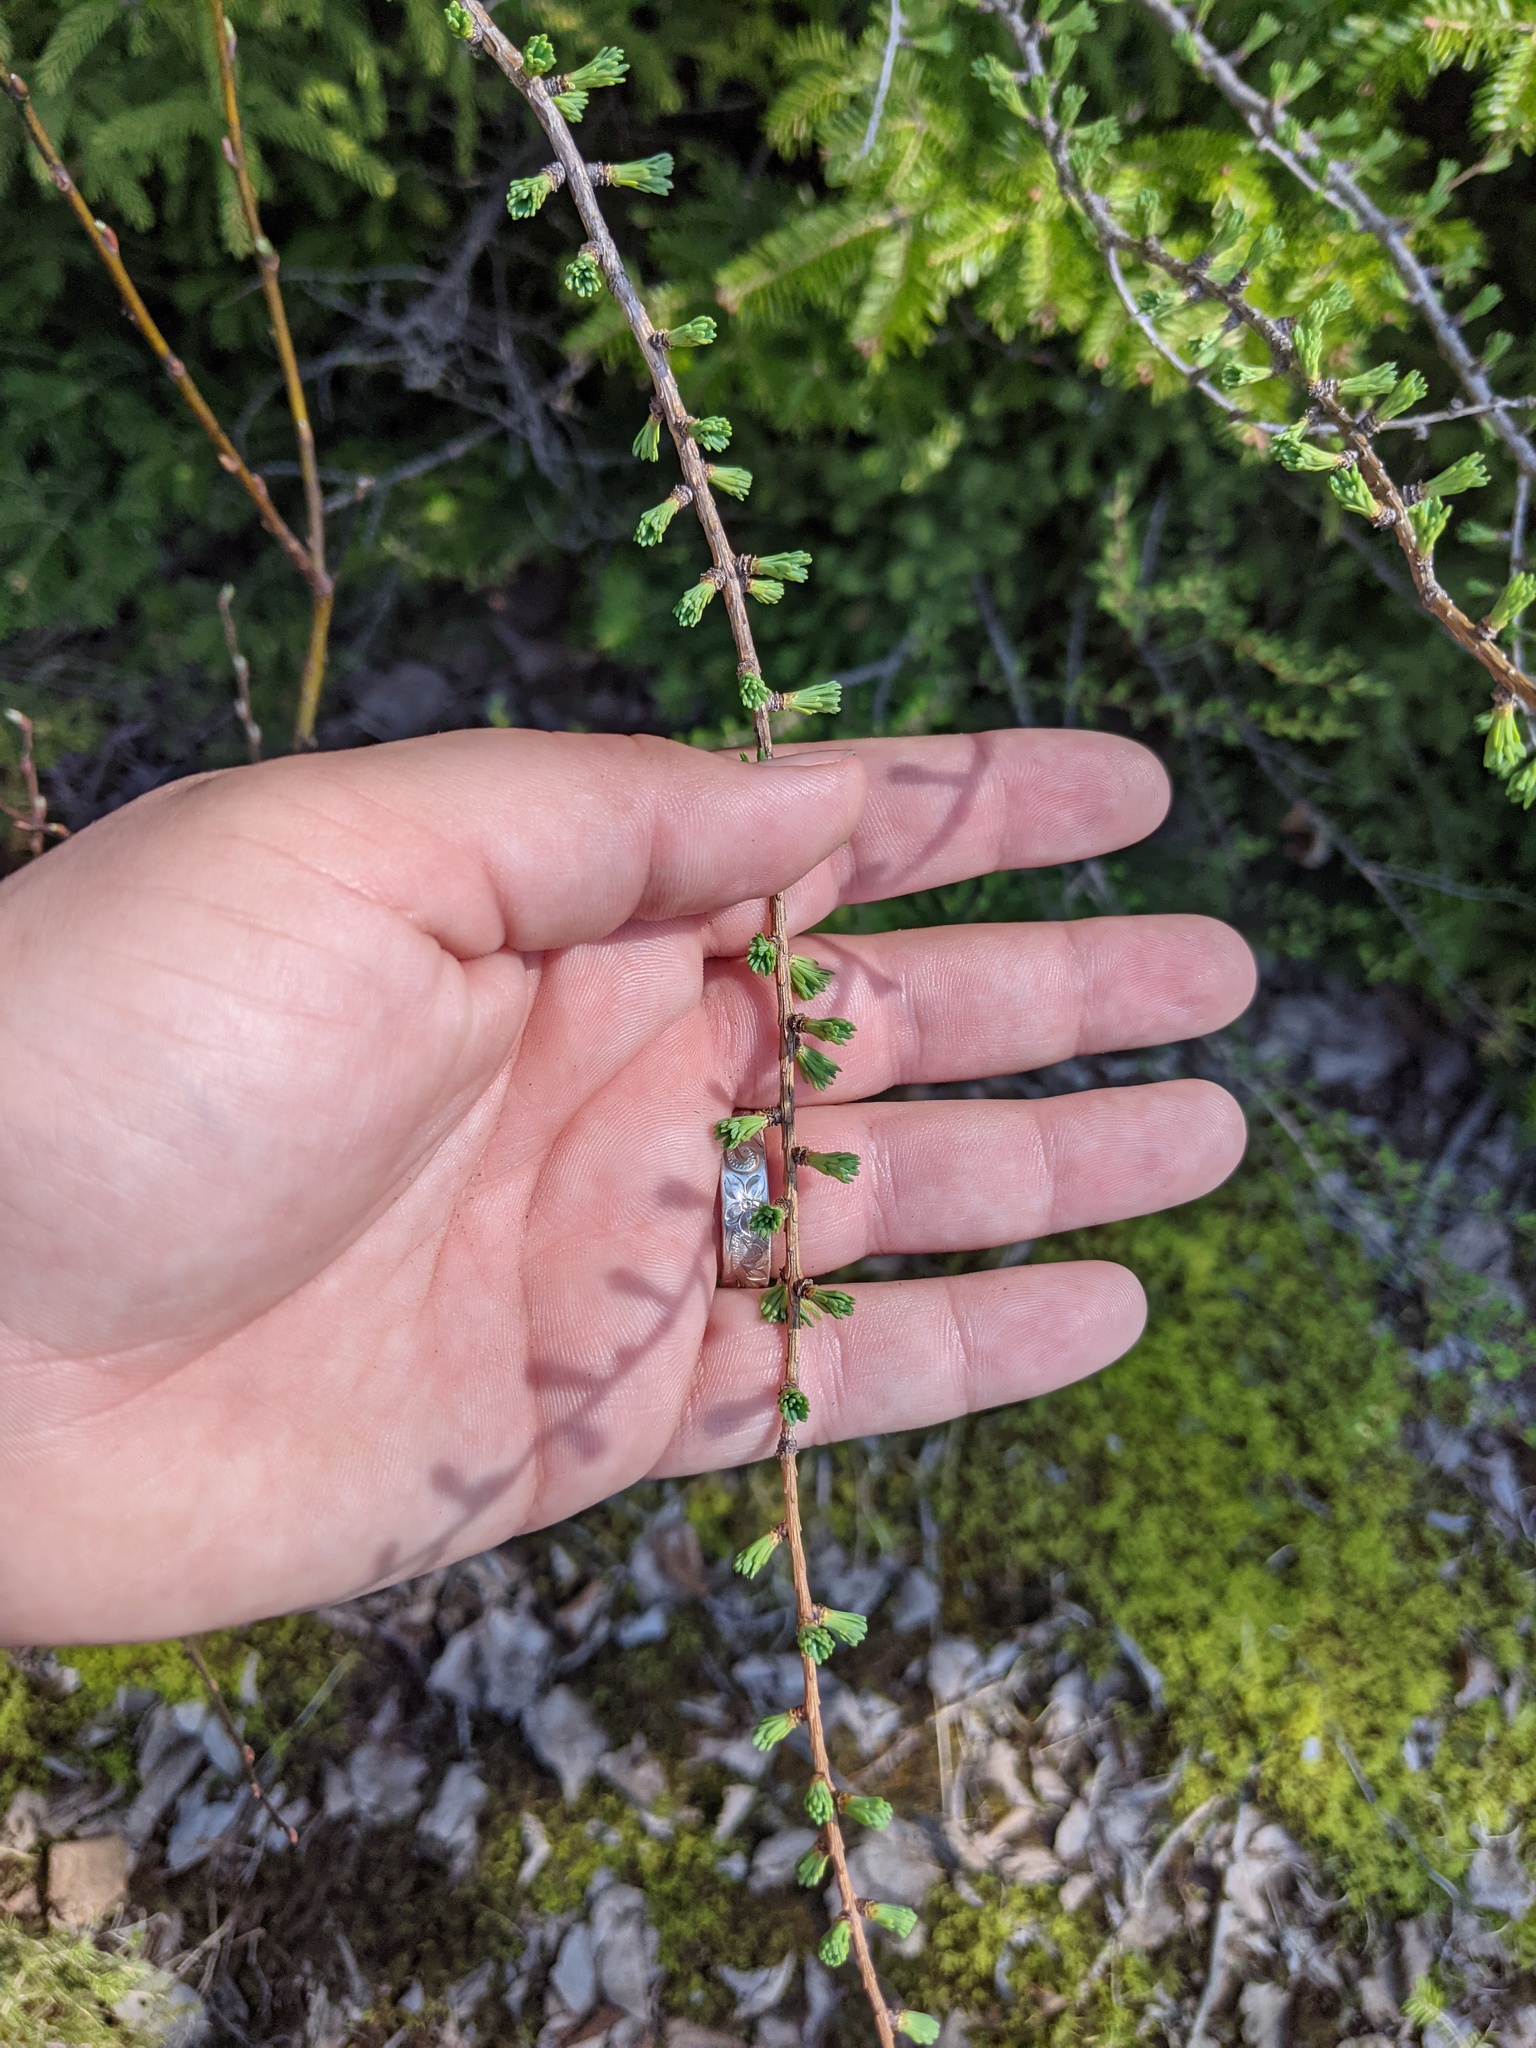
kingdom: Plantae
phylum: Tracheophyta
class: Pinopsida
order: Pinales
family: Pinaceae
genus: Larix
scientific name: Larix laricina
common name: American larch
